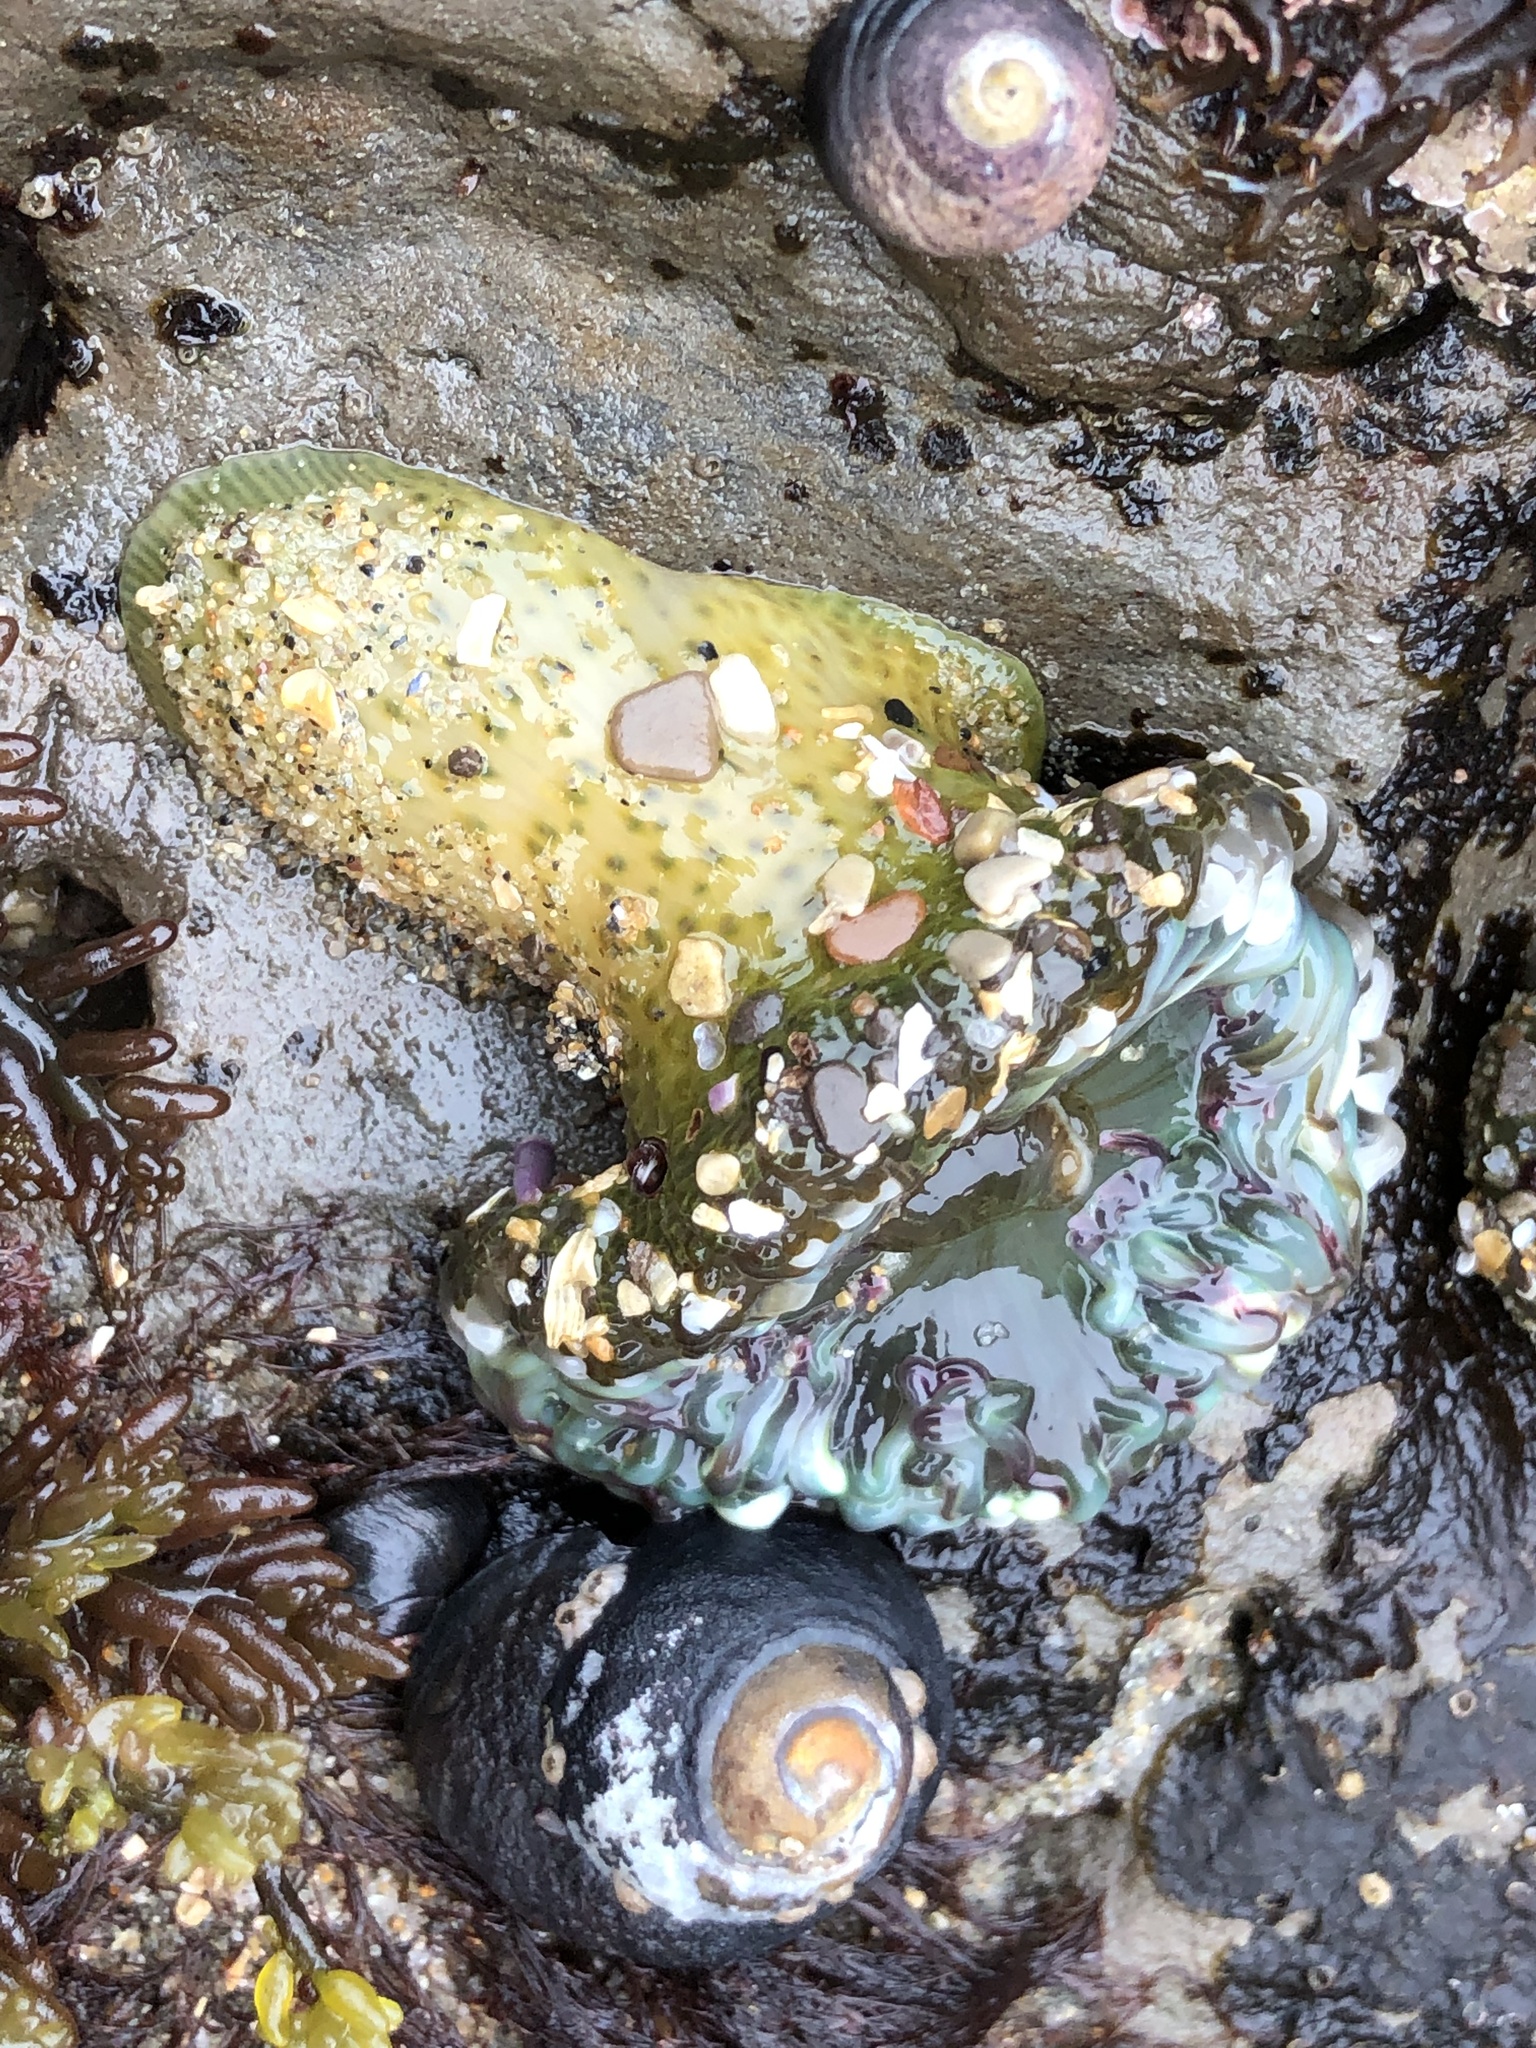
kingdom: Animalia
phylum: Cnidaria
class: Anthozoa
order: Actiniaria
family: Actiniidae
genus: Anthopleura
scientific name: Anthopleura sola
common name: Sun anemone
